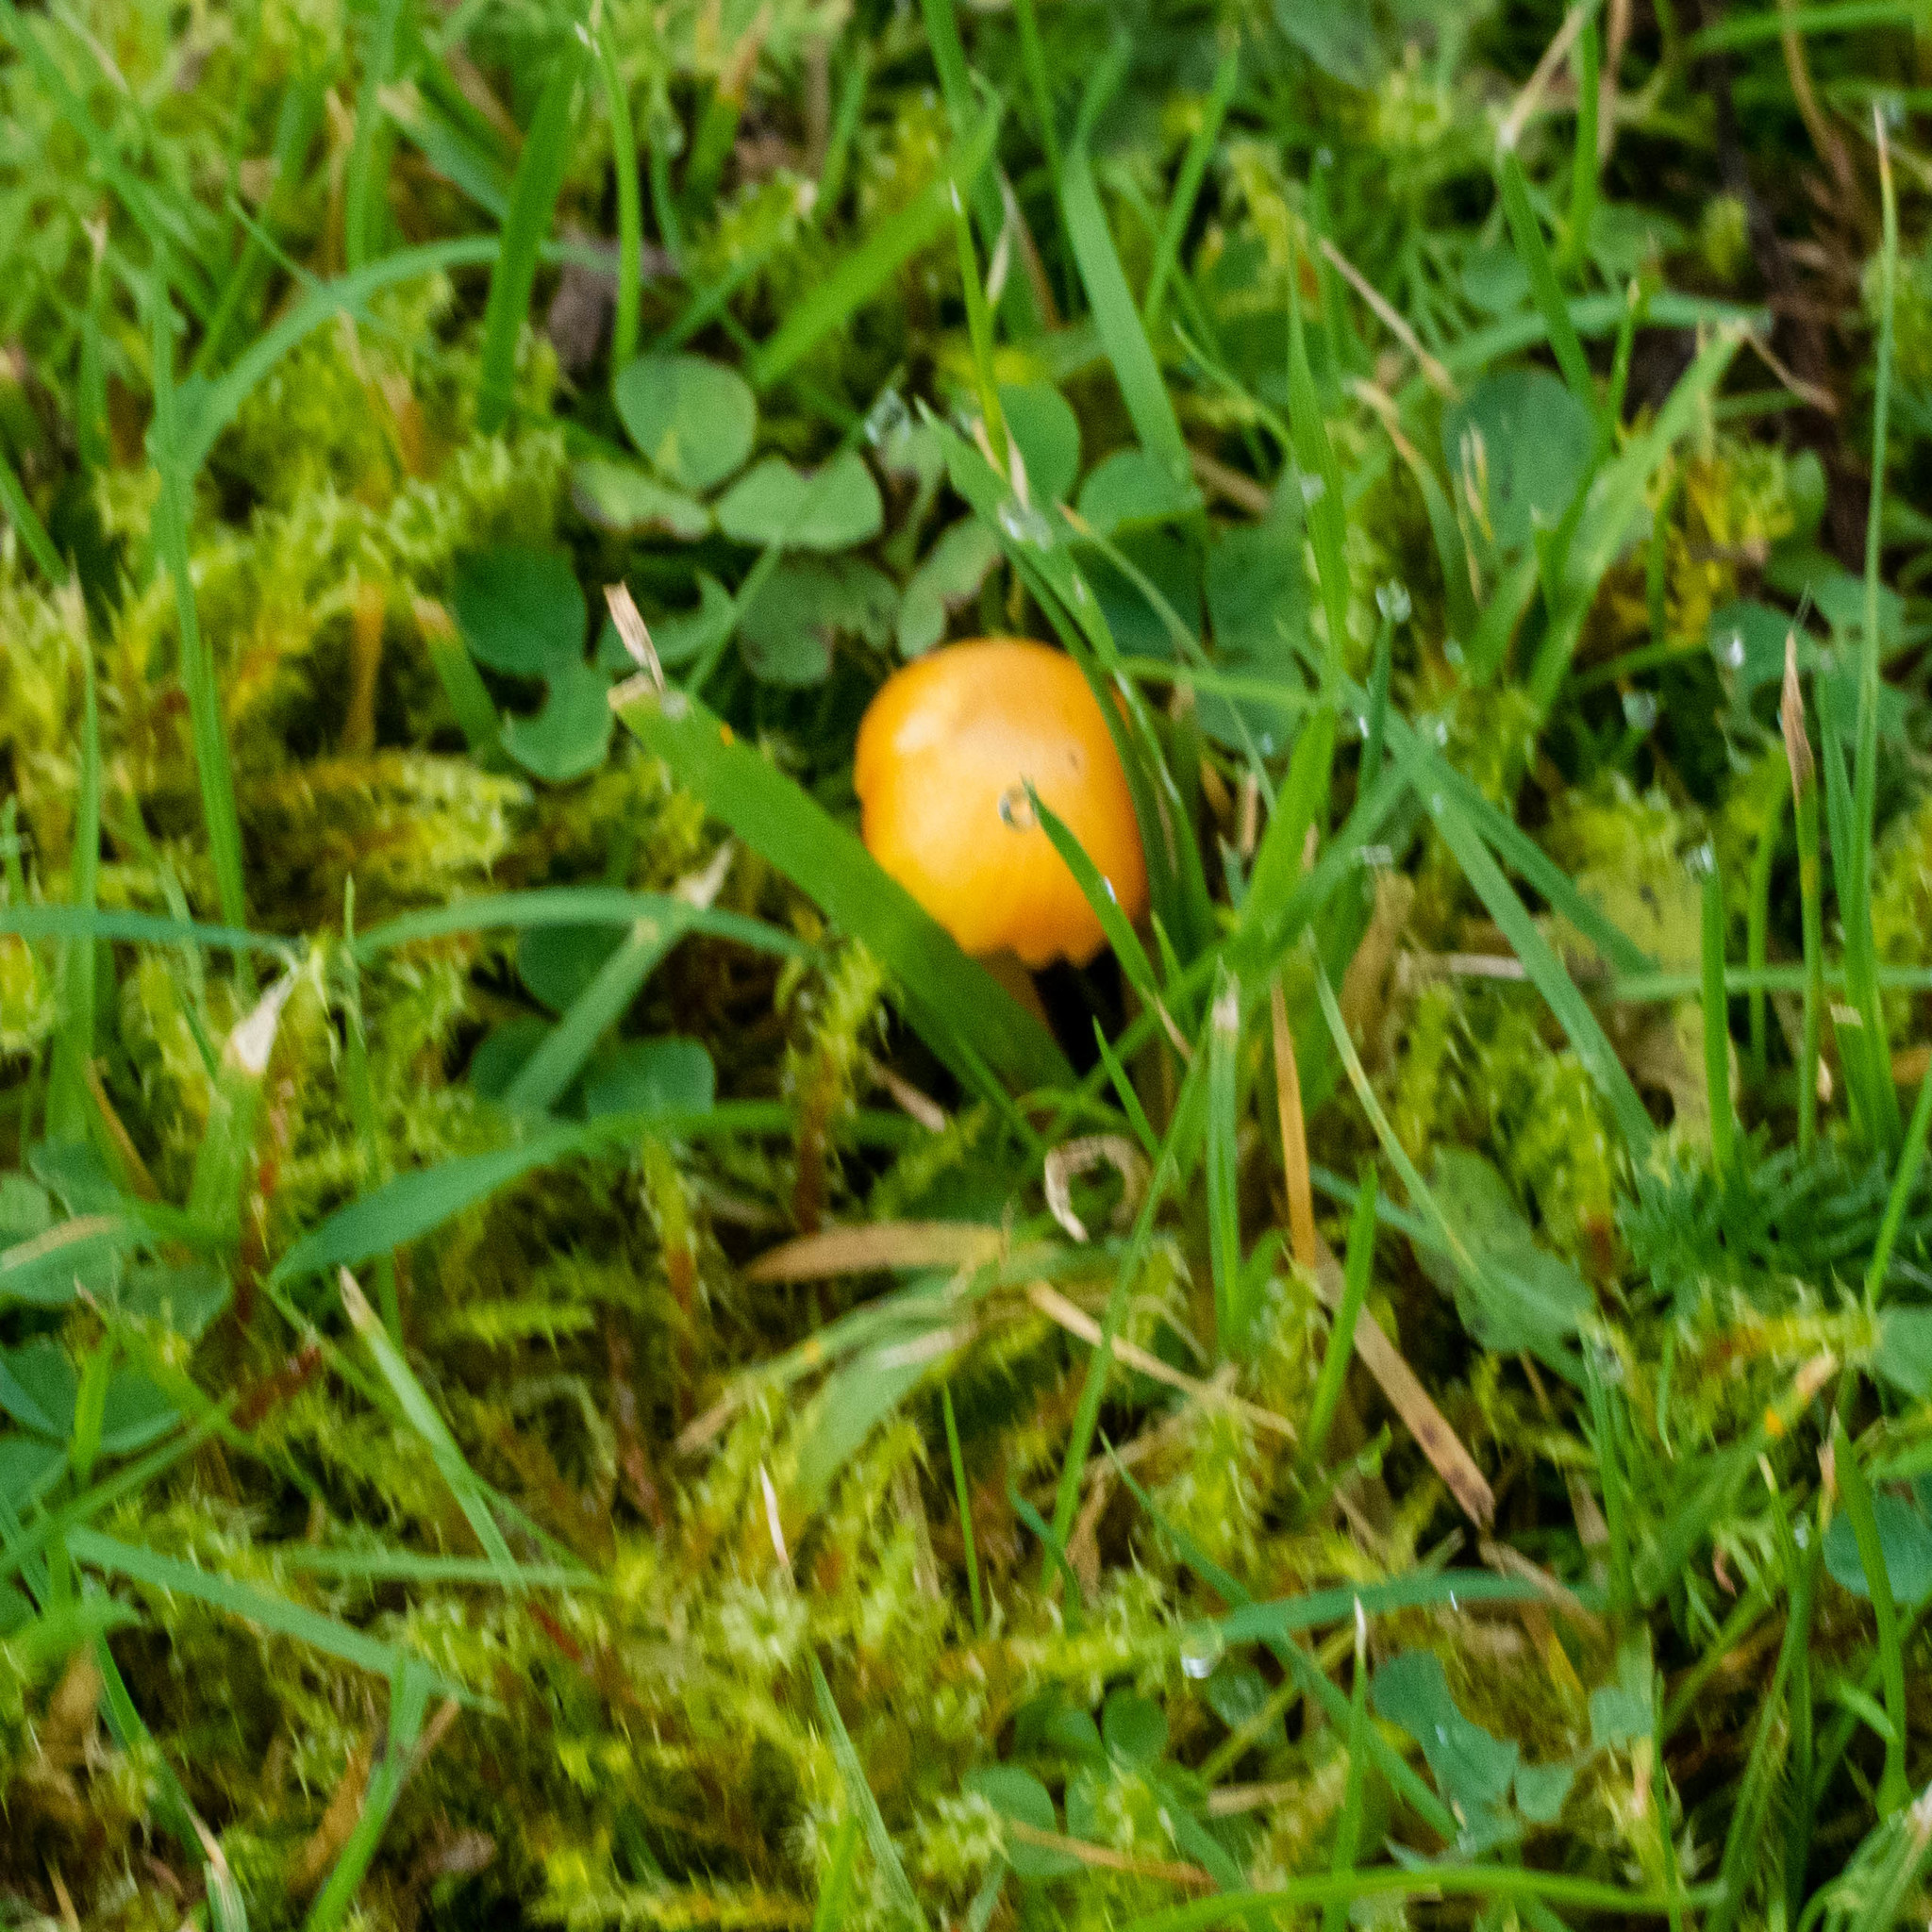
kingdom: Fungi
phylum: Basidiomycota
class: Agaricomycetes
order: Agaricales
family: Hygrophoraceae
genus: Hygrocybe
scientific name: Hygrocybe ceracea
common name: Butter waxcap
